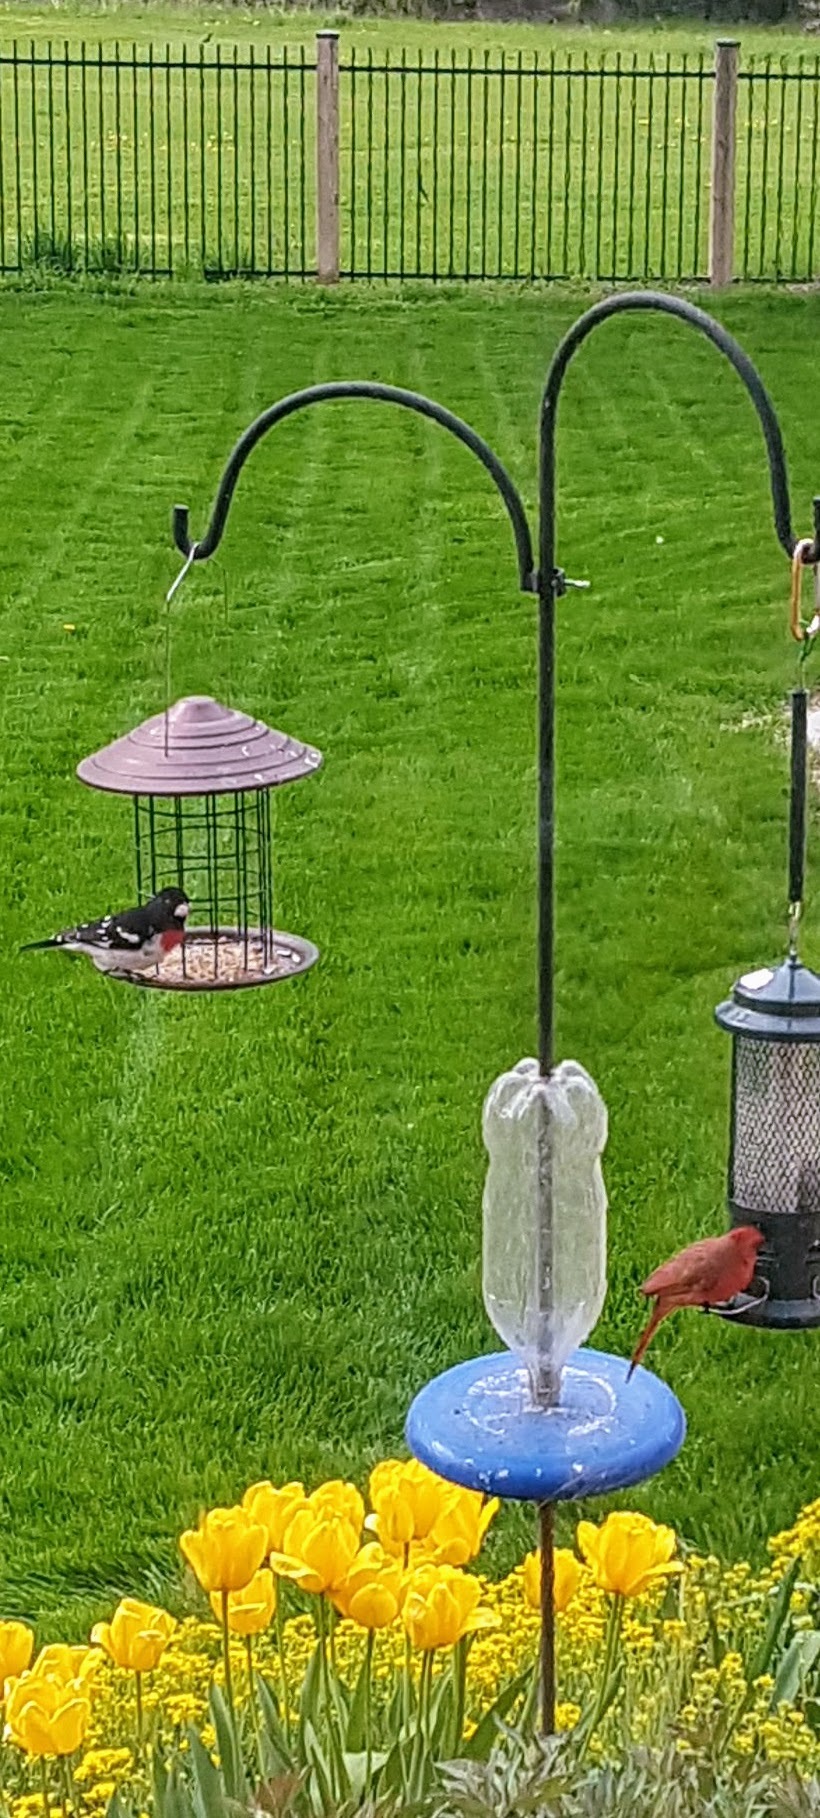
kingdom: Animalia
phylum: Chordata
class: Aves
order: Passeriformes
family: Cardinalidae
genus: Pheucticus
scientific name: Pheucticus ludovicianus
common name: Rose-breasted grosbeak
